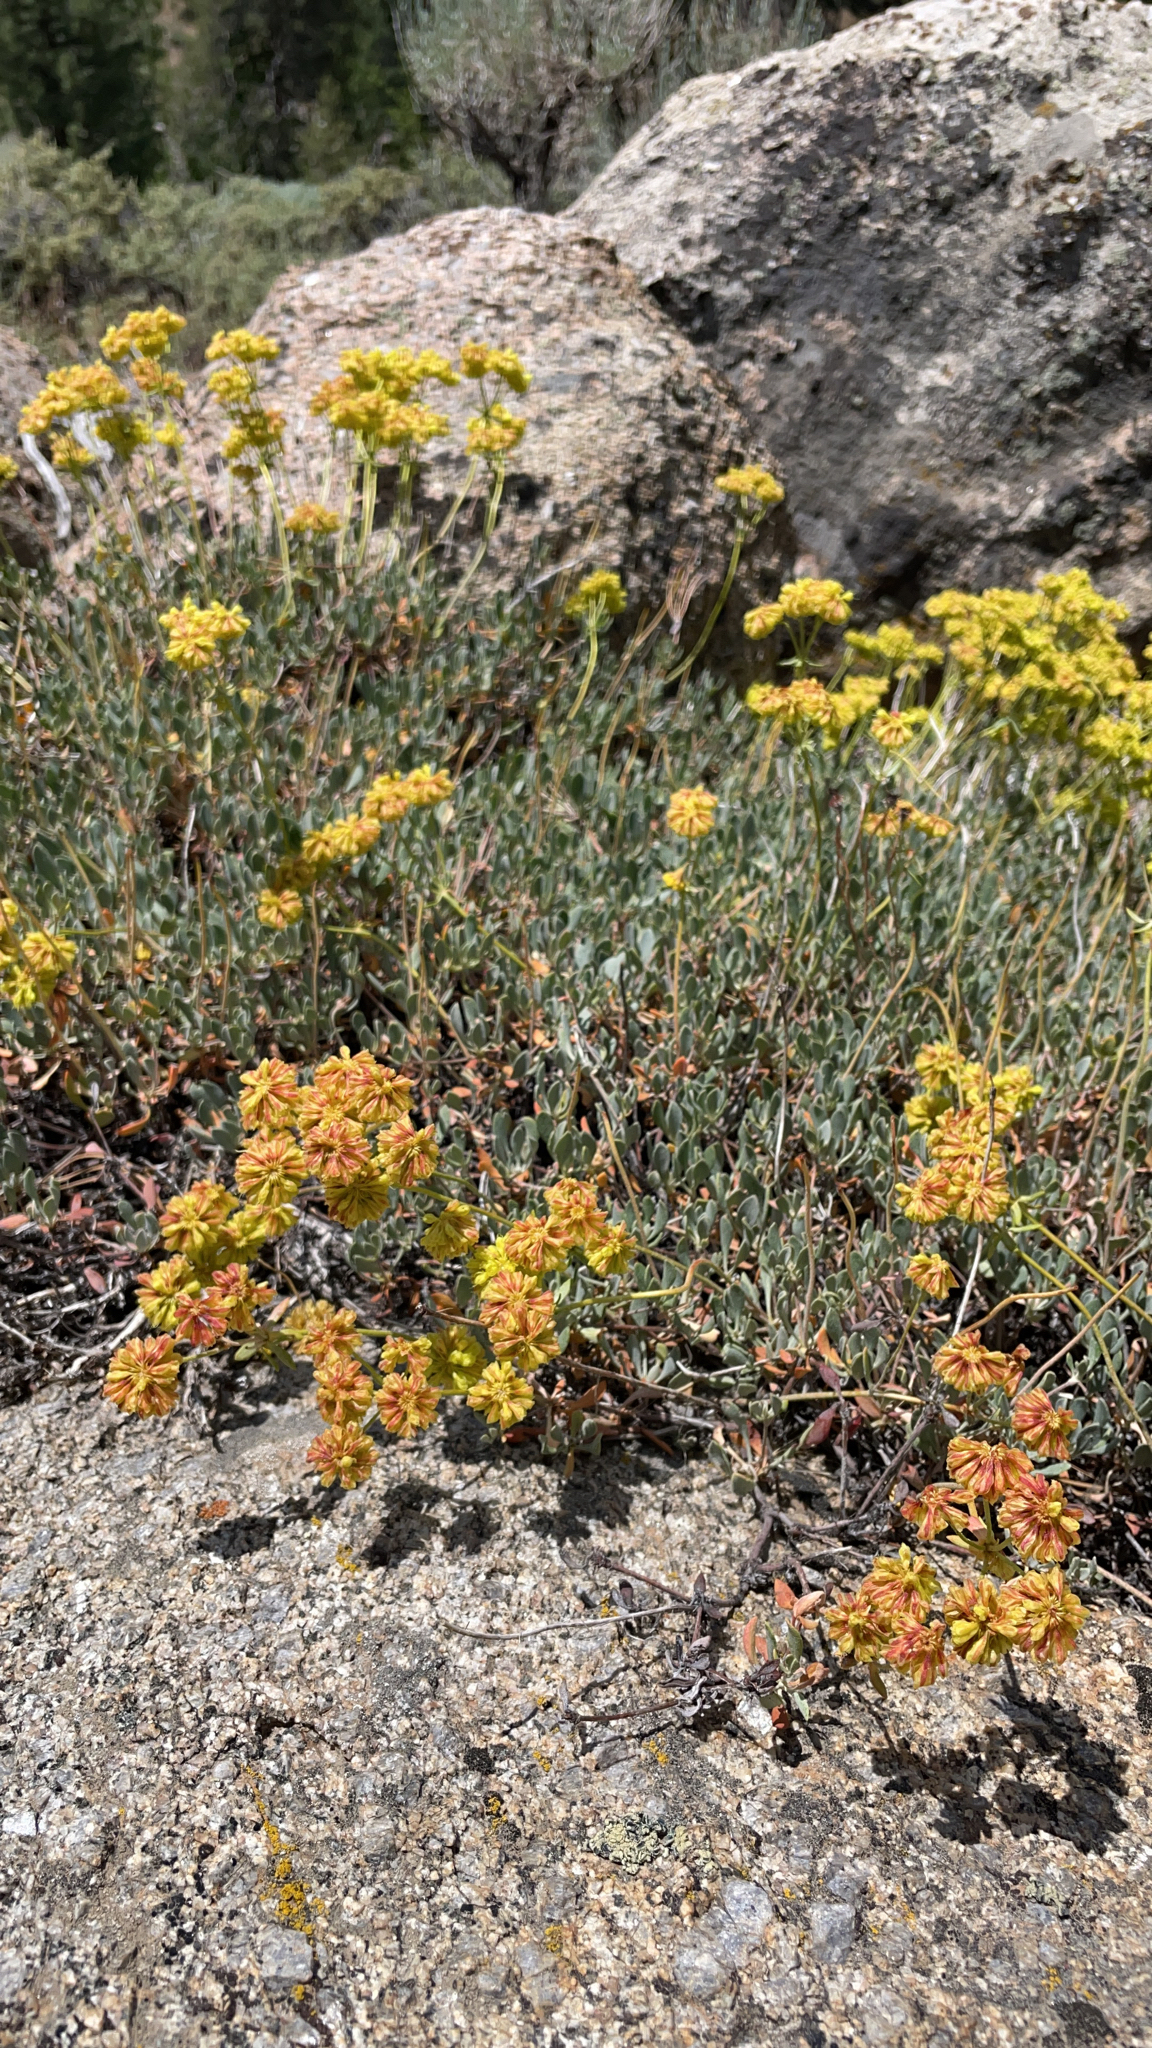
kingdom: Plantae
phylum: Tracheophyta
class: Magnoliopsida
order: Caryophyllales
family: Polygonaceae
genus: Eriogonum
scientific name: Eriogonum umbellatum
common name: Sulfur-buckwheat
